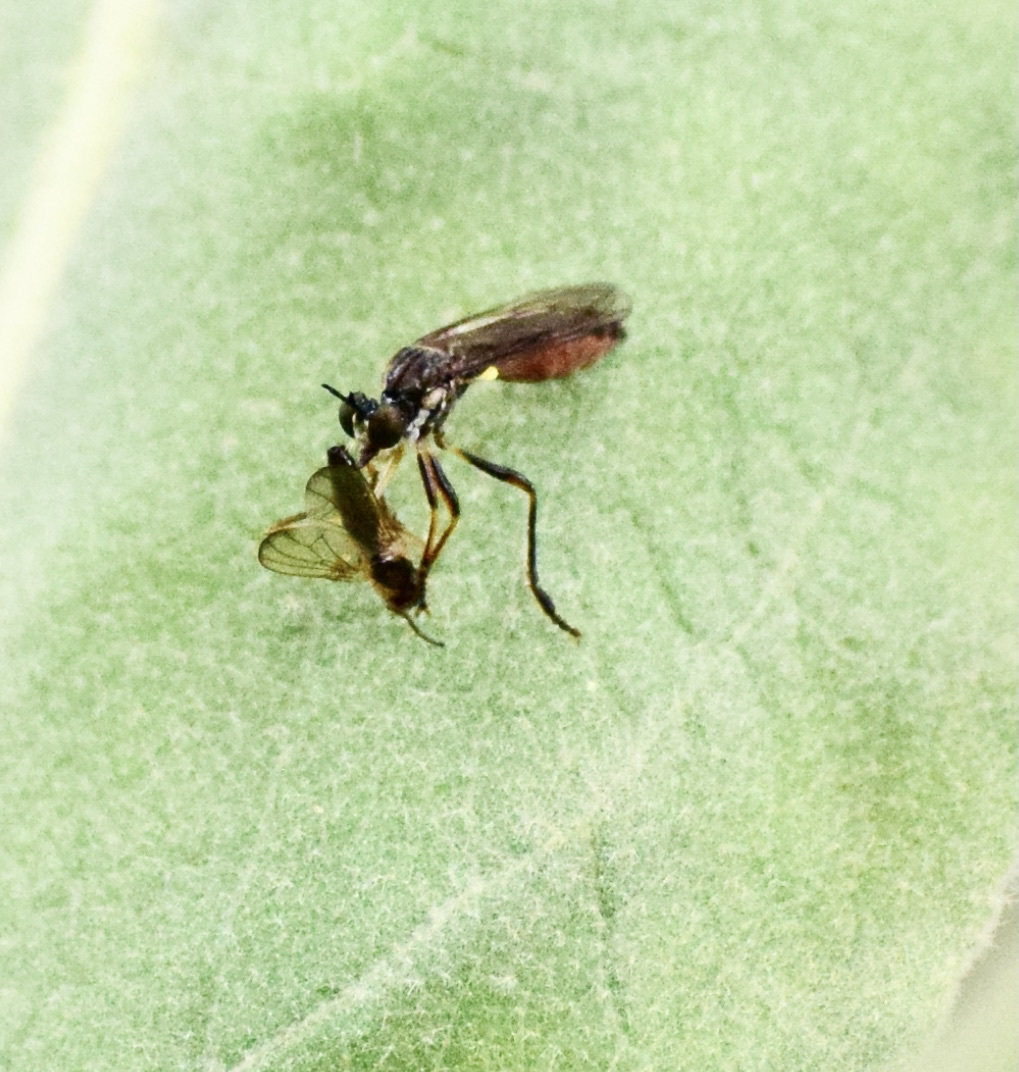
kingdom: Animalia
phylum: Arthropoda
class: Insecta
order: Diptera
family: Asilidae
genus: Dioctria
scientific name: Dioctria hyalipennis
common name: Stripe-legged robberfly
